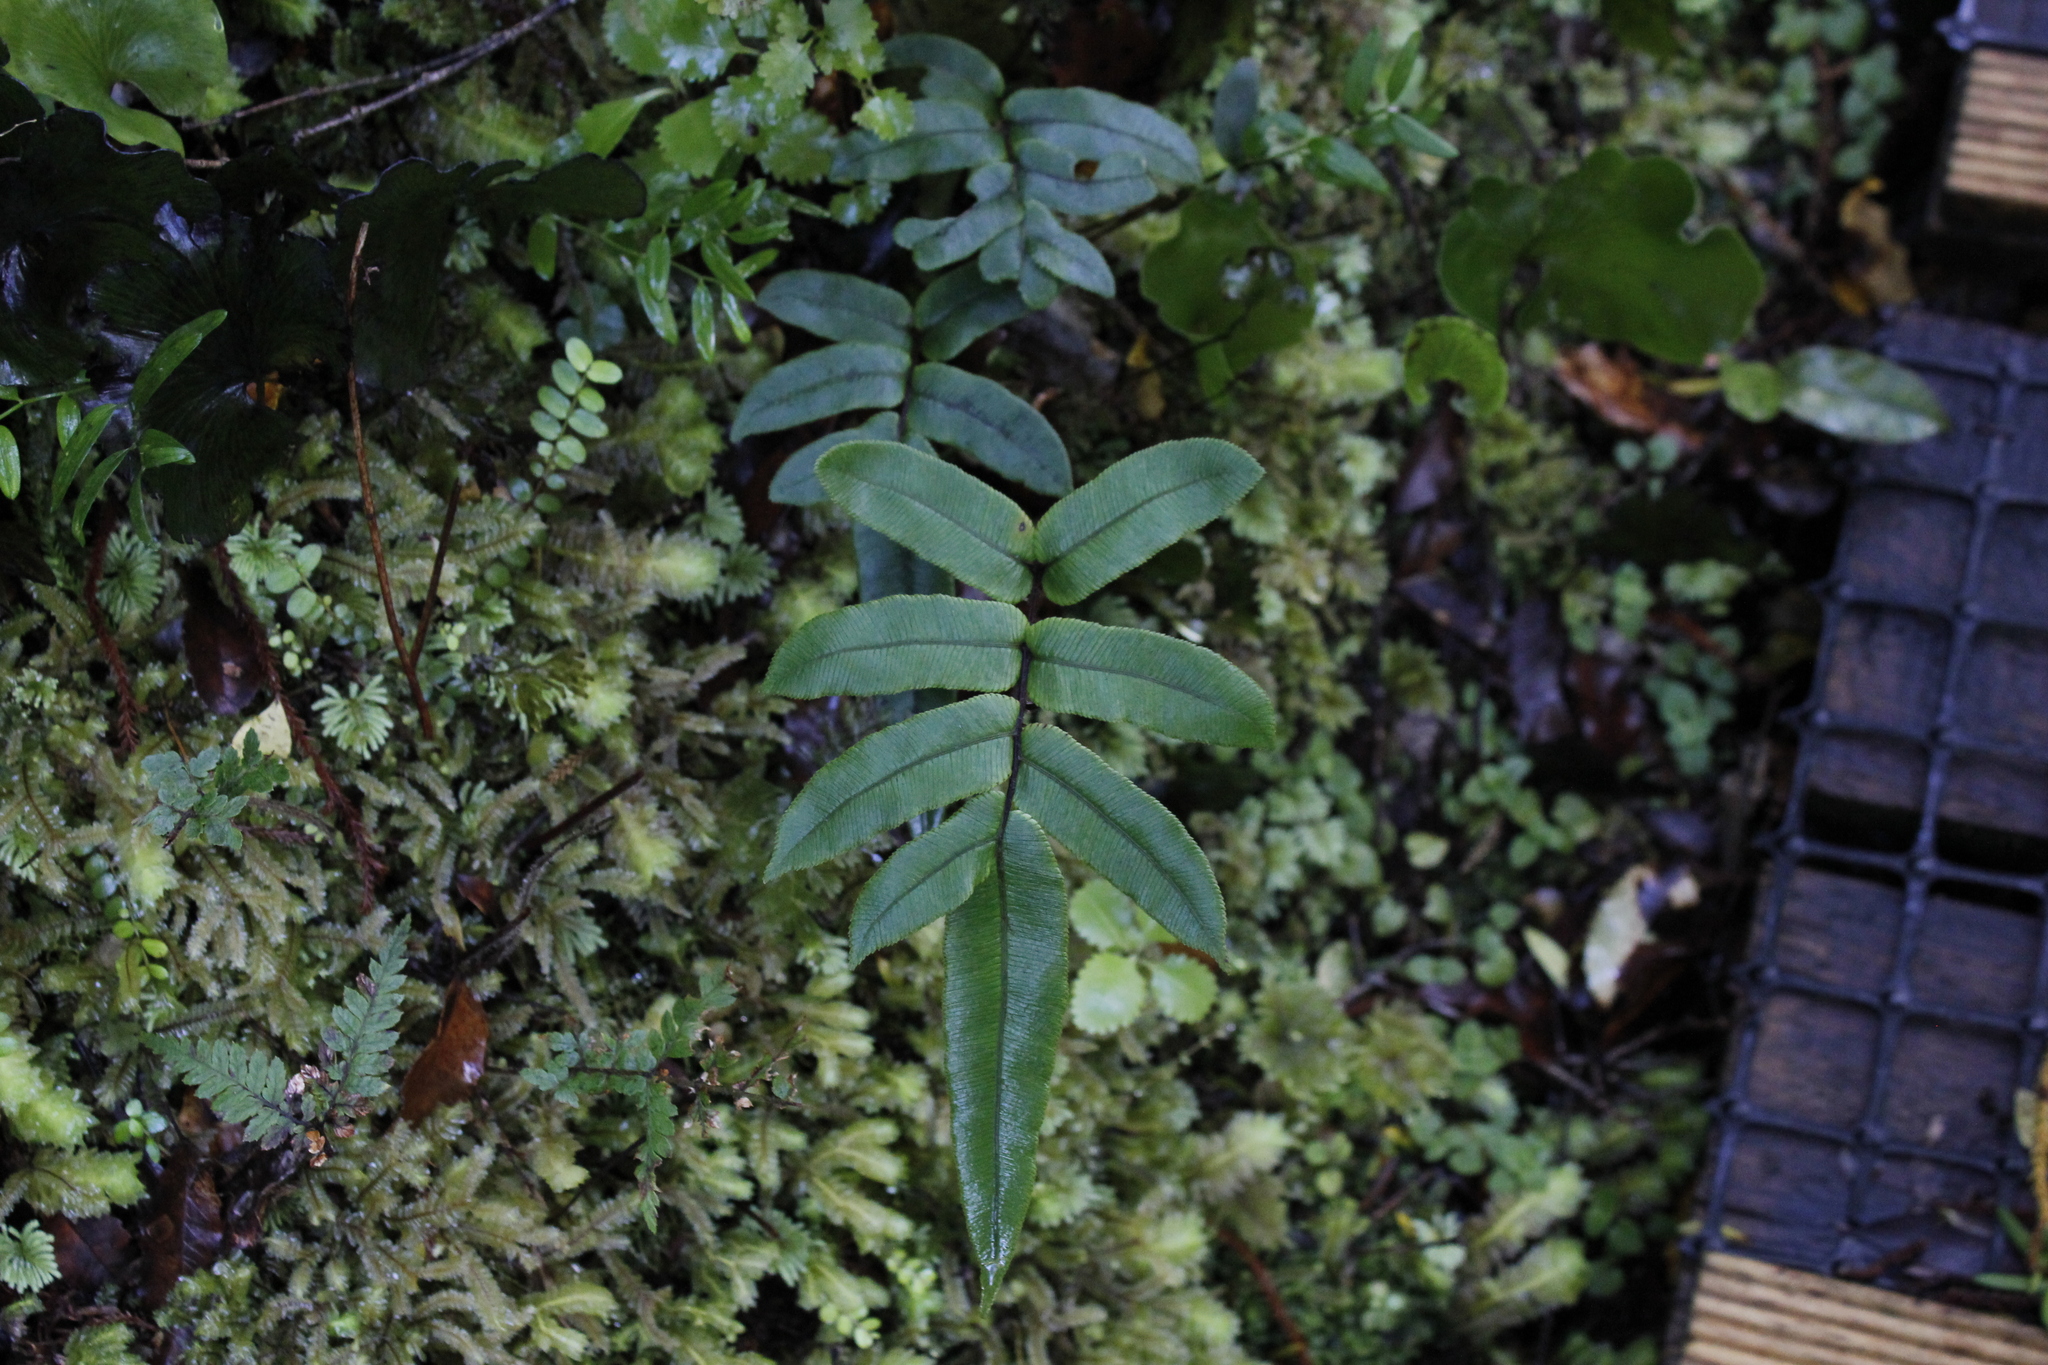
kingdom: Plantae
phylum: Tracheophyta
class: Polypodiopsida
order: Polypodiales
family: Blechnaceae
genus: Parablechnum
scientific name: Parablechnum procerum
